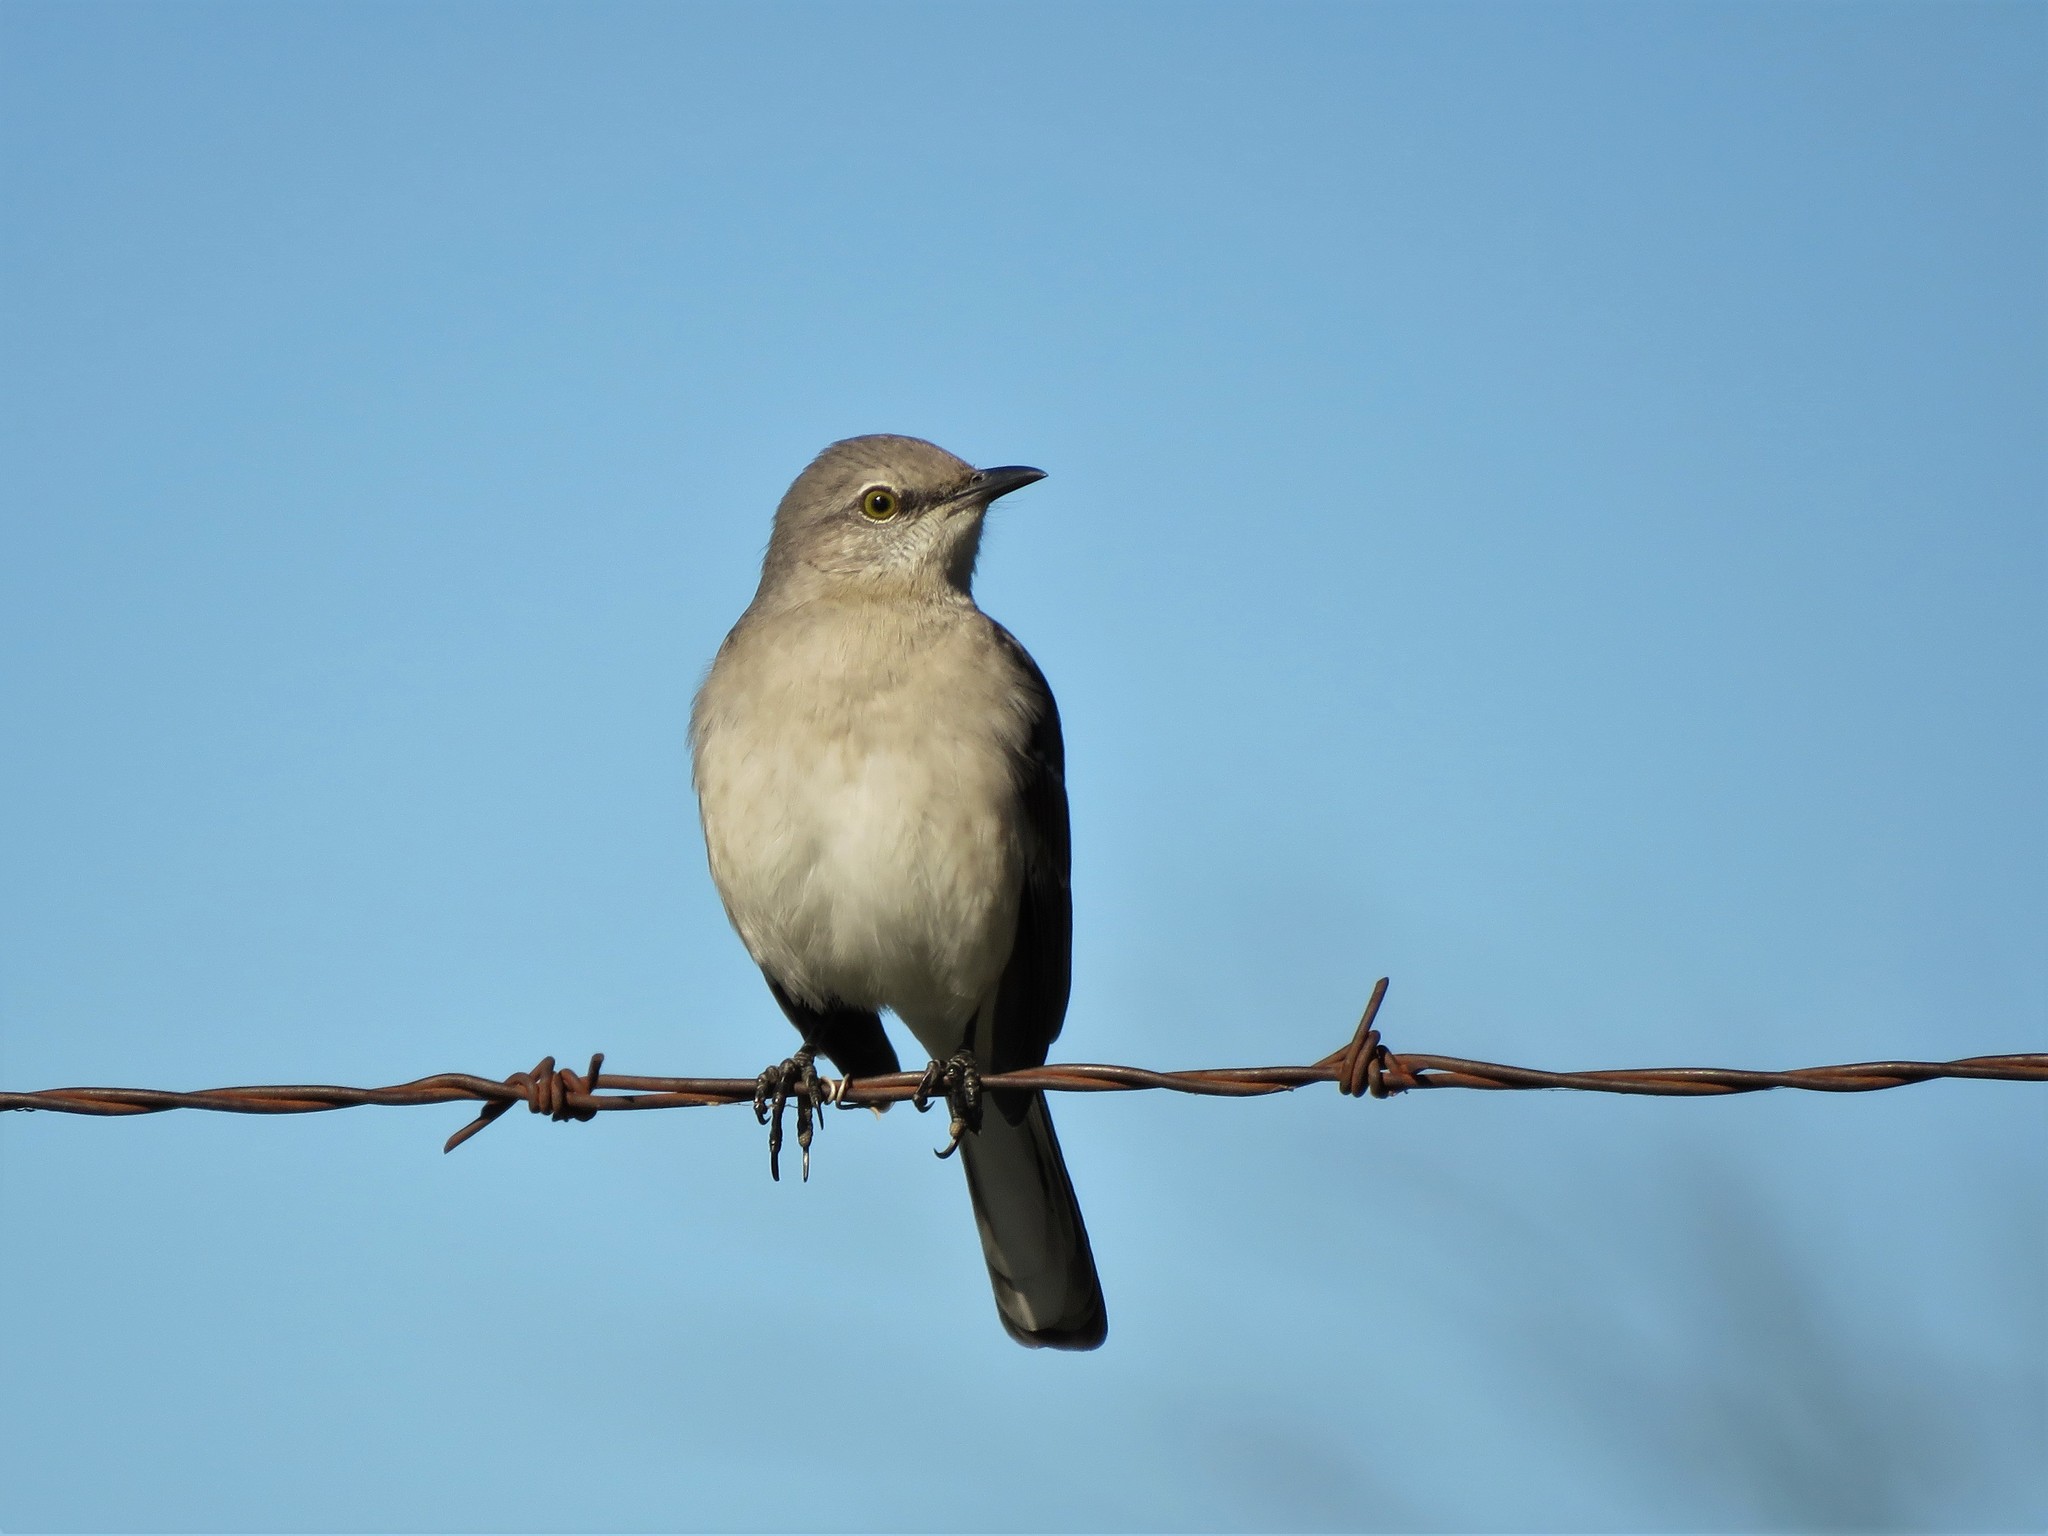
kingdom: Animalia
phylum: Chordata
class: Aves
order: Passeriformes
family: Mimidae
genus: Mimus
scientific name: Mimus polyglottos
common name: Northern mockingbird
